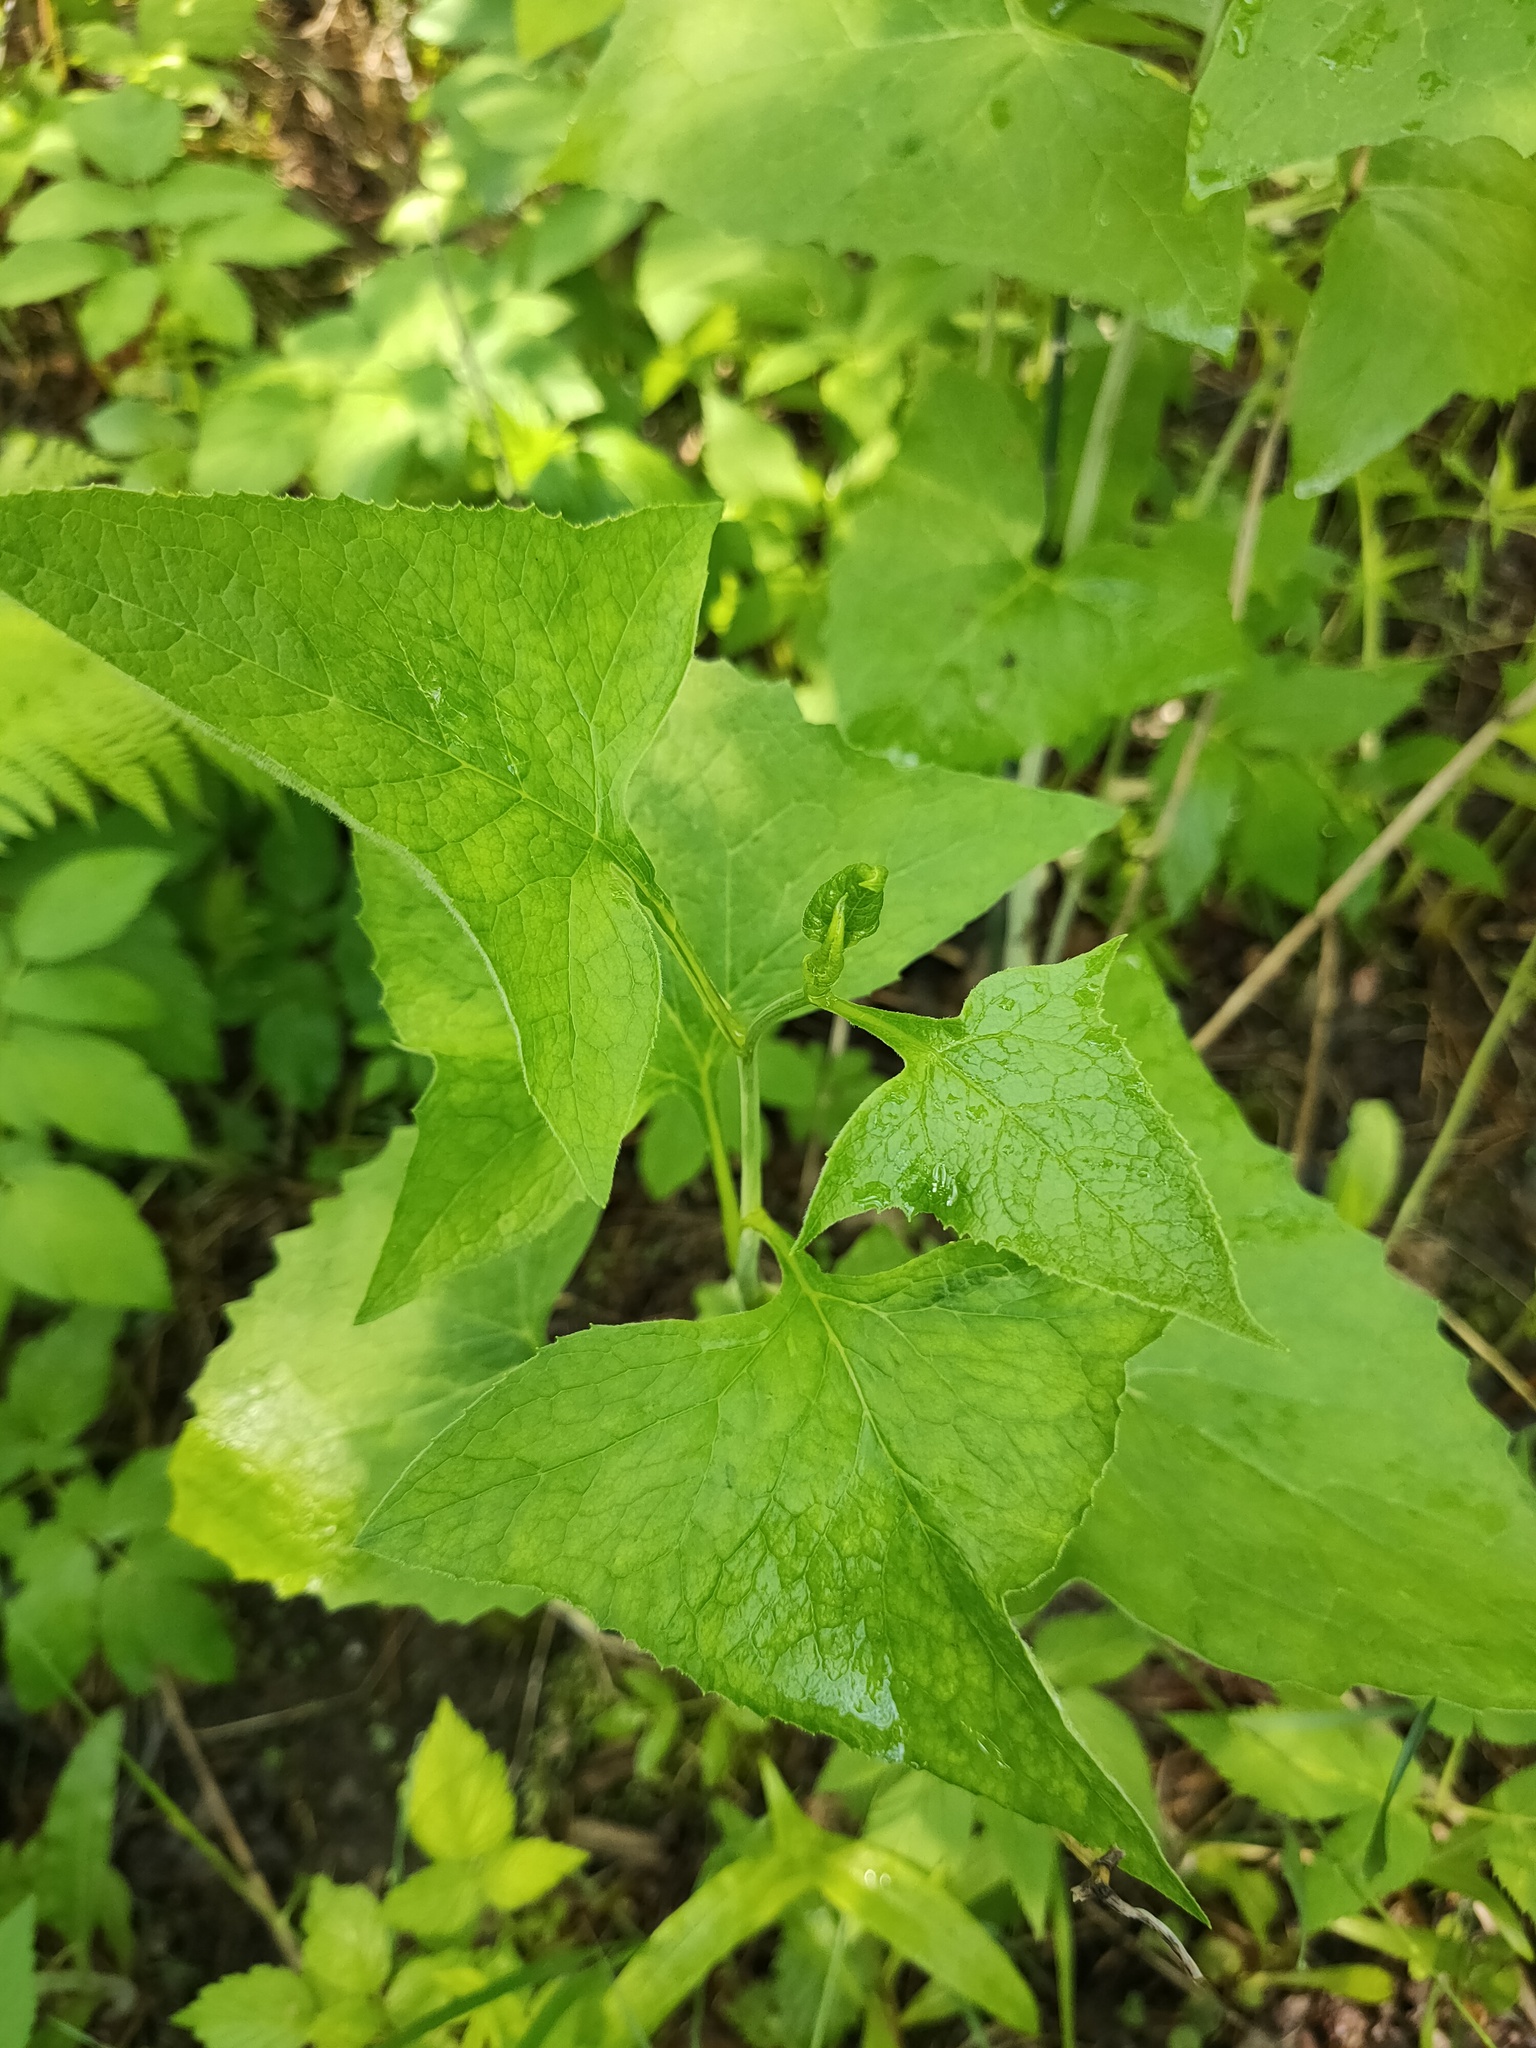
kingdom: Plantae
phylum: Tracheophyta
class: Magnoliopsida
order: Asterales
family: Asteraceae
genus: Parasenecio
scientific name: Parasenecio hastatus
